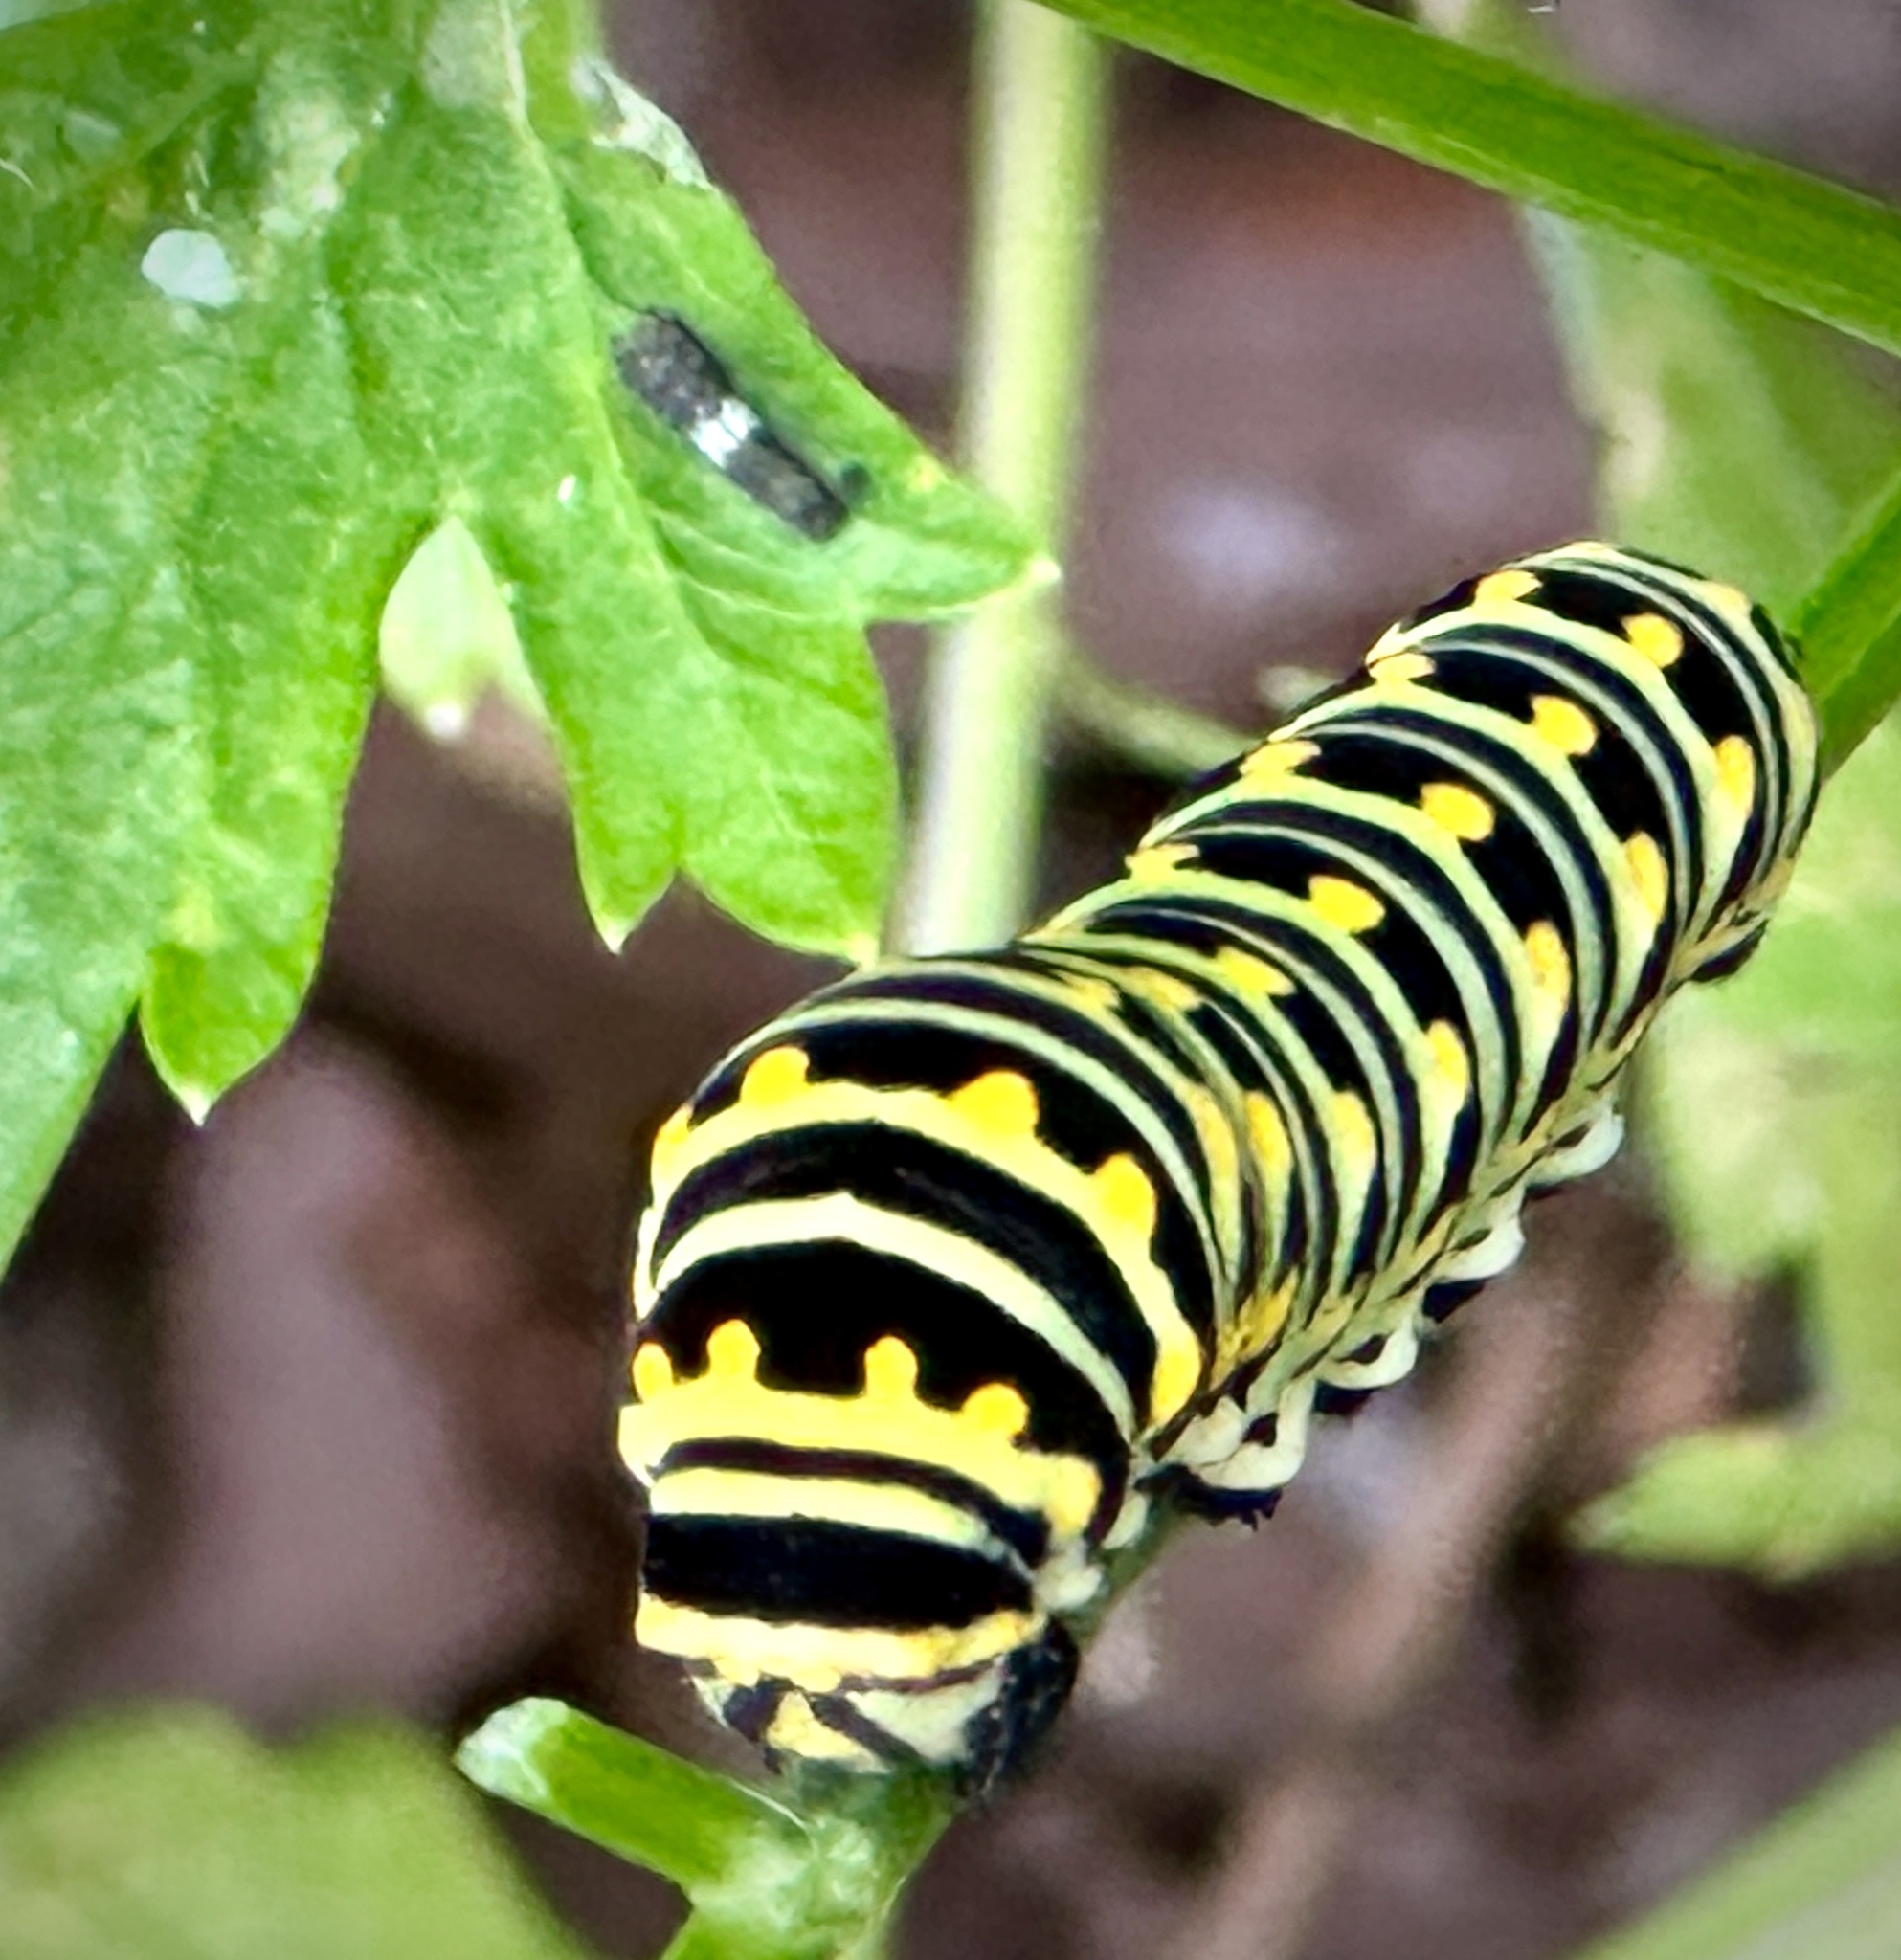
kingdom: Animalia
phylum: Arthropoda
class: Insecta
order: Lepidoptera
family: Papilionidae
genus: Papilio
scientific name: Papilio polyxenes
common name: Black swallowtail
